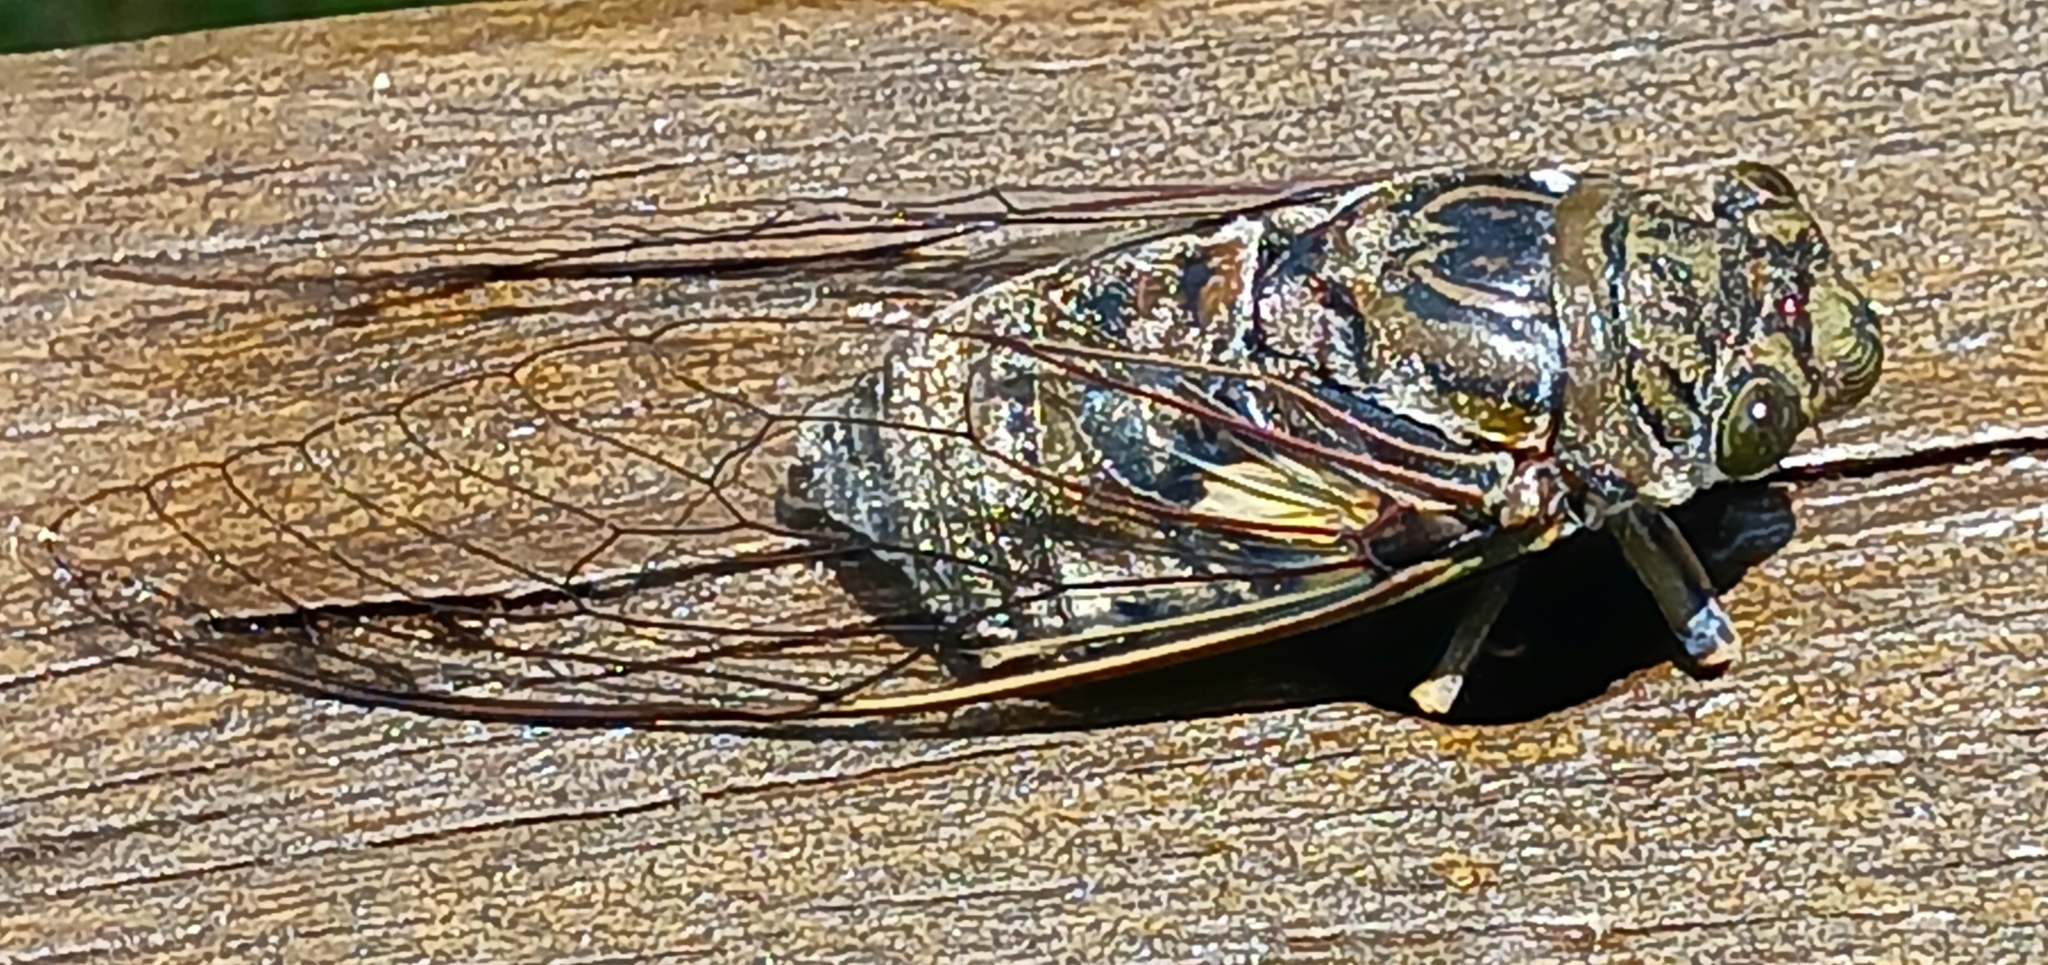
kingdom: Animalia
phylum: Arthropoda
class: Insecta
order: Hemiptera
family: Cicadidae
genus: Quesada
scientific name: Quesada gigas
